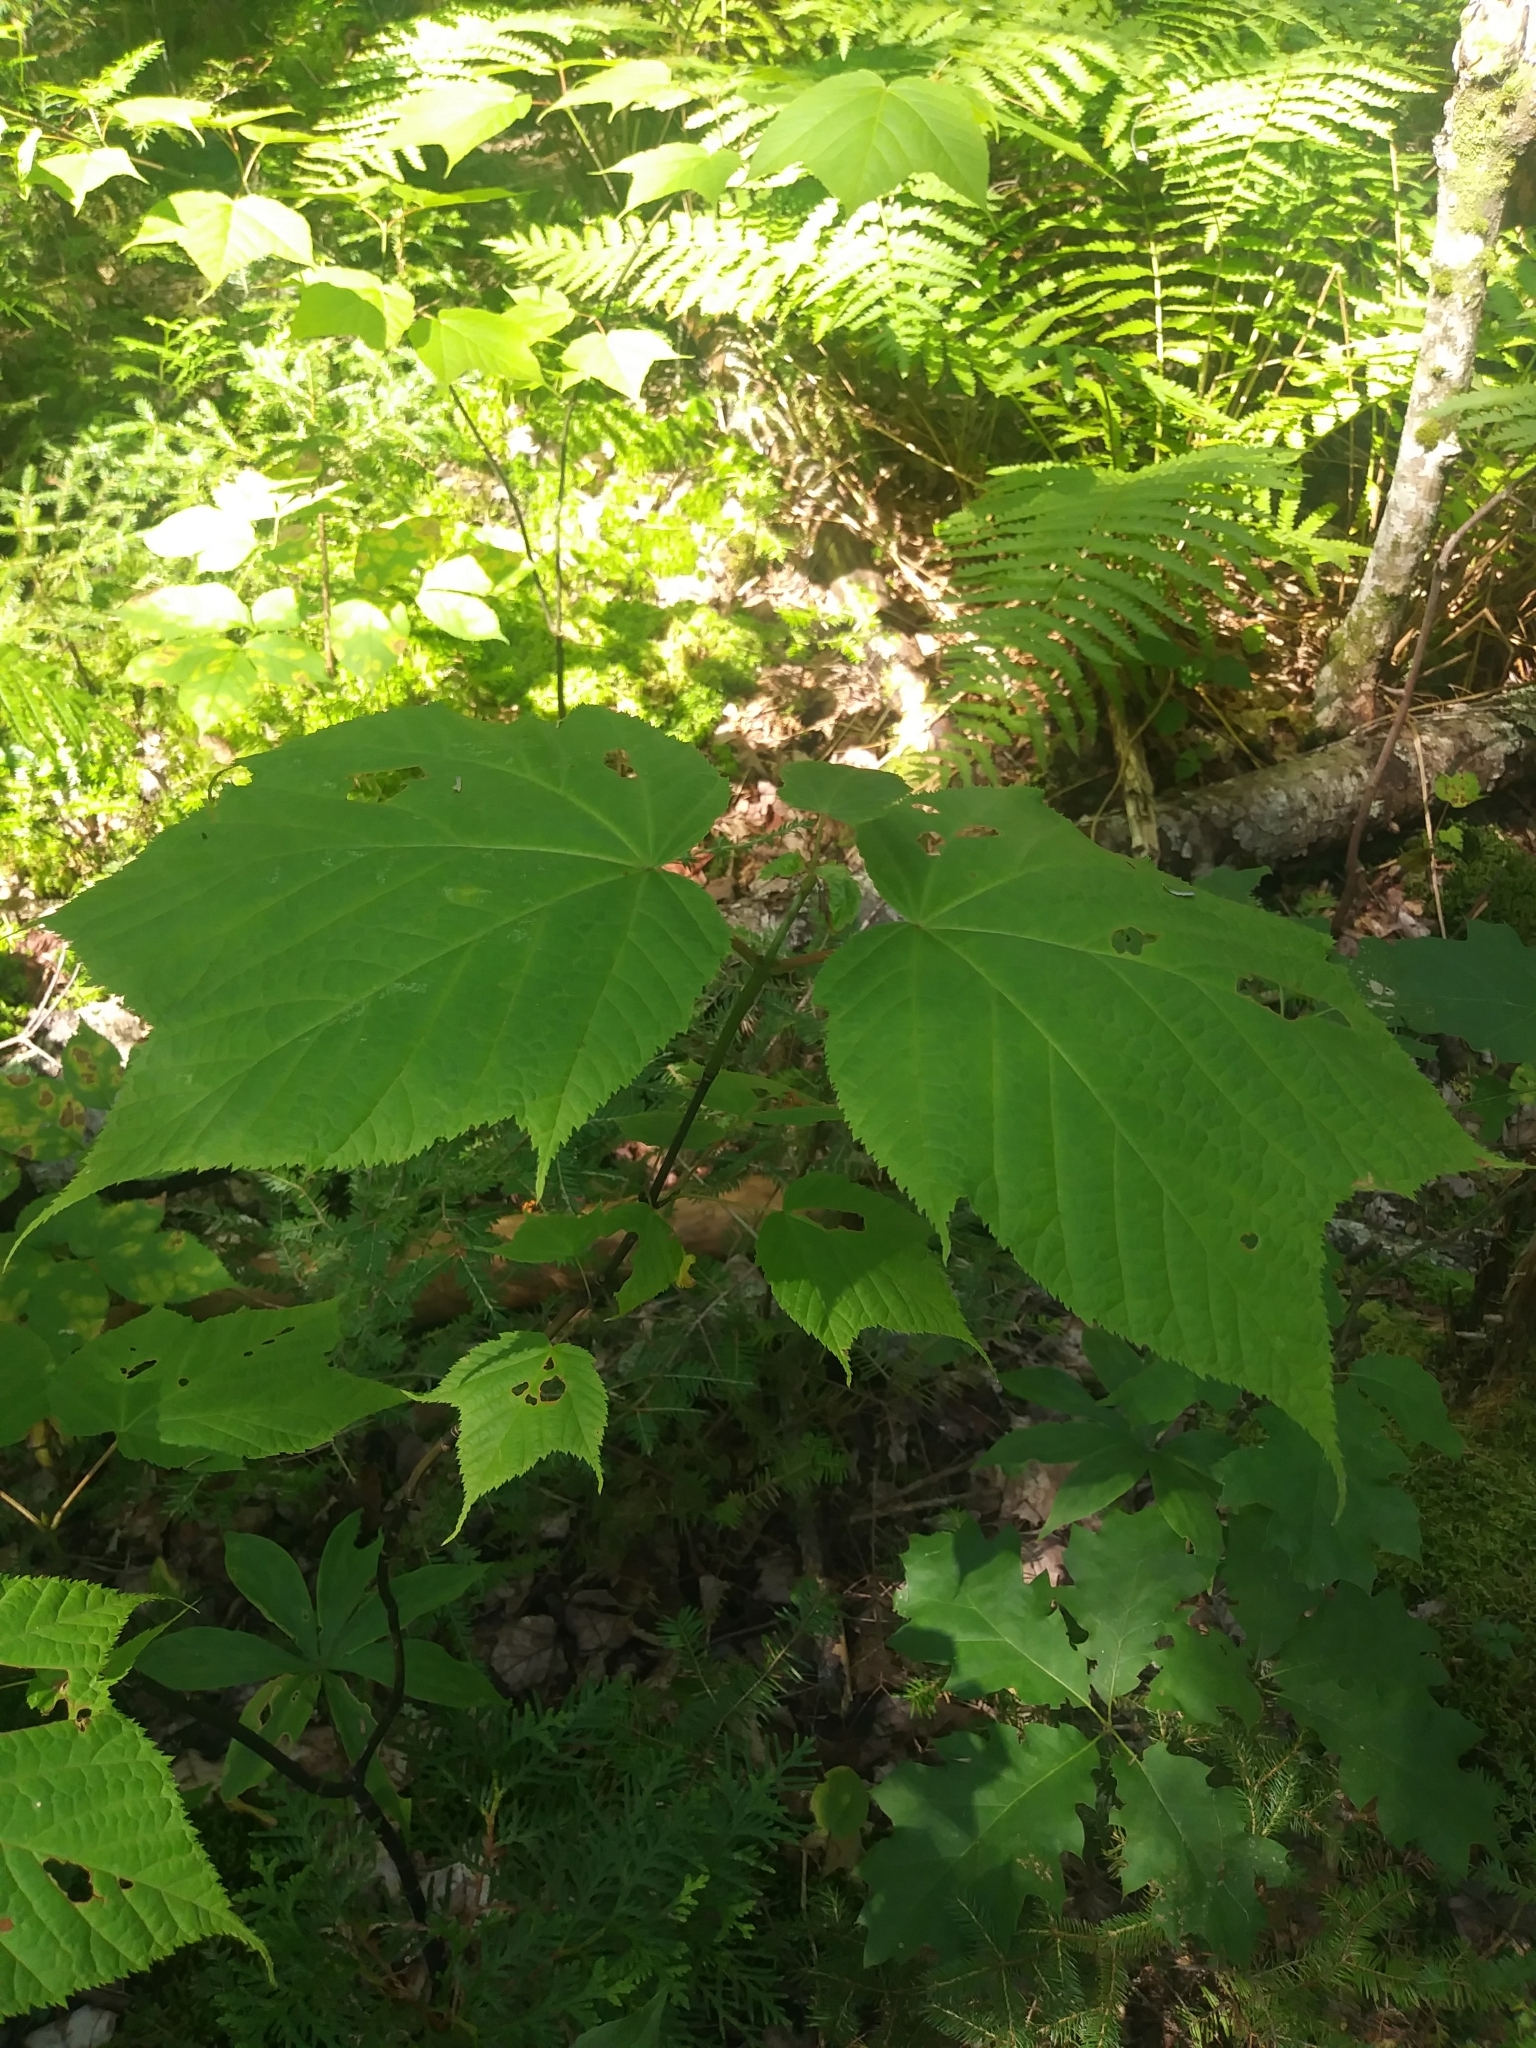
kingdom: Plantae
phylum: Tracheophyta
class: Magnoliopsida
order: Sapindales
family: Sapindaceae
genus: Acer
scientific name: Acer pensylvanicum
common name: Moosewood
